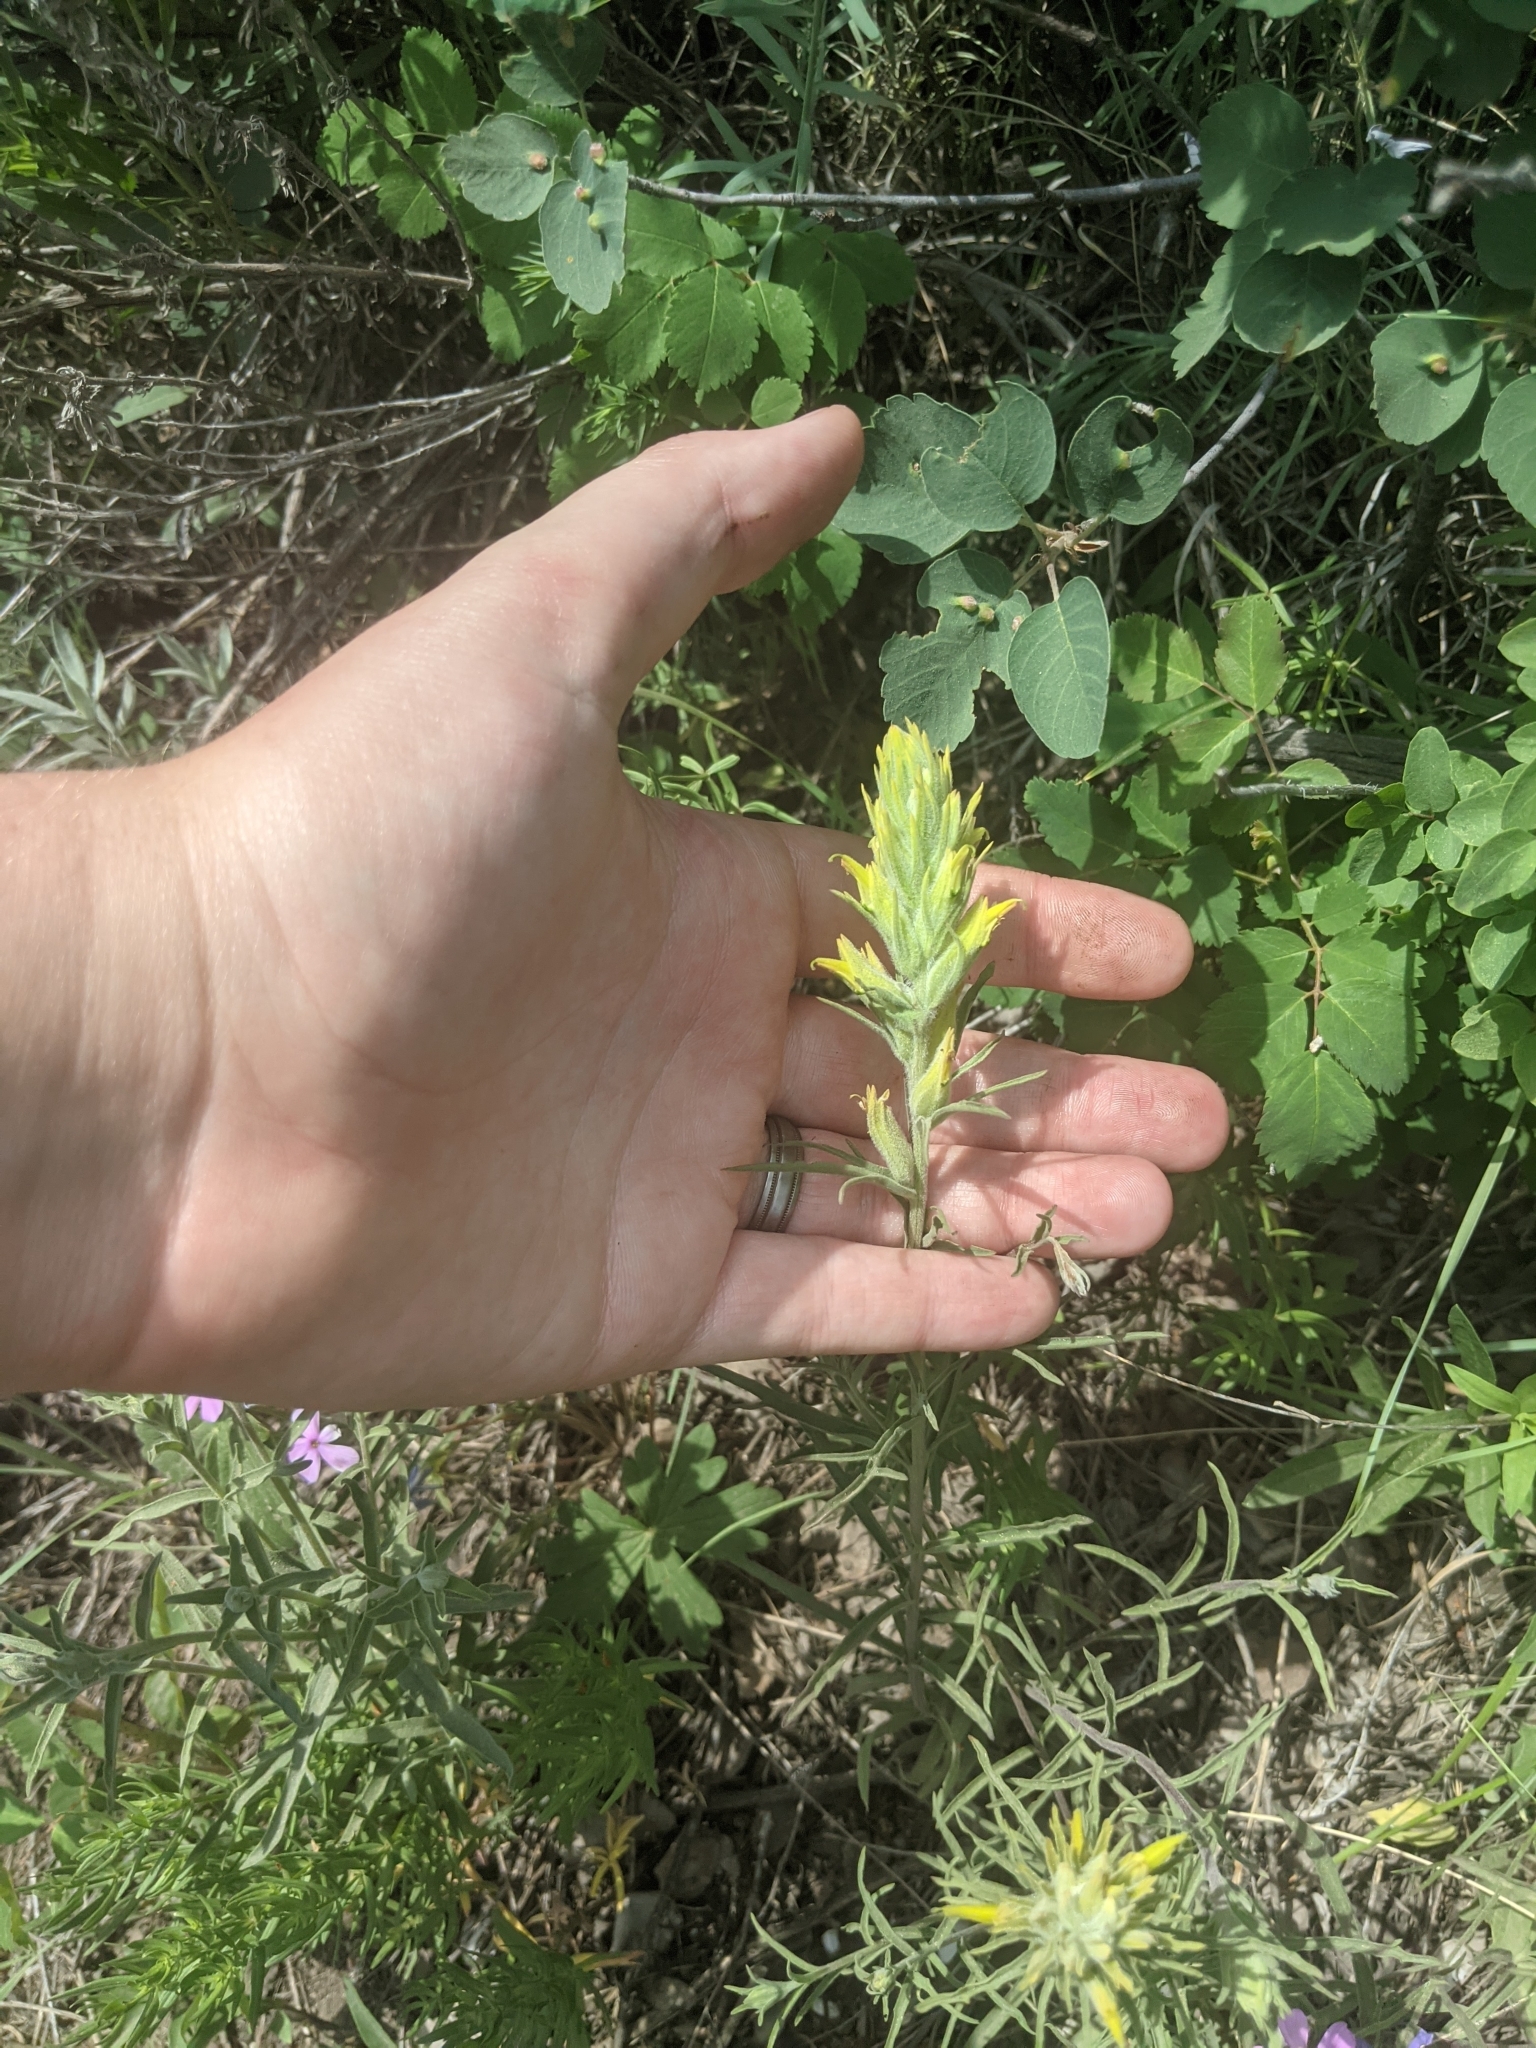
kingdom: Plantae
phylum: Tracheophyta
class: Magnoliopsida
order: Lamiales
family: Orobanchaceae
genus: Castilleja
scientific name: Castilleja flava
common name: Yellow paintbrush
